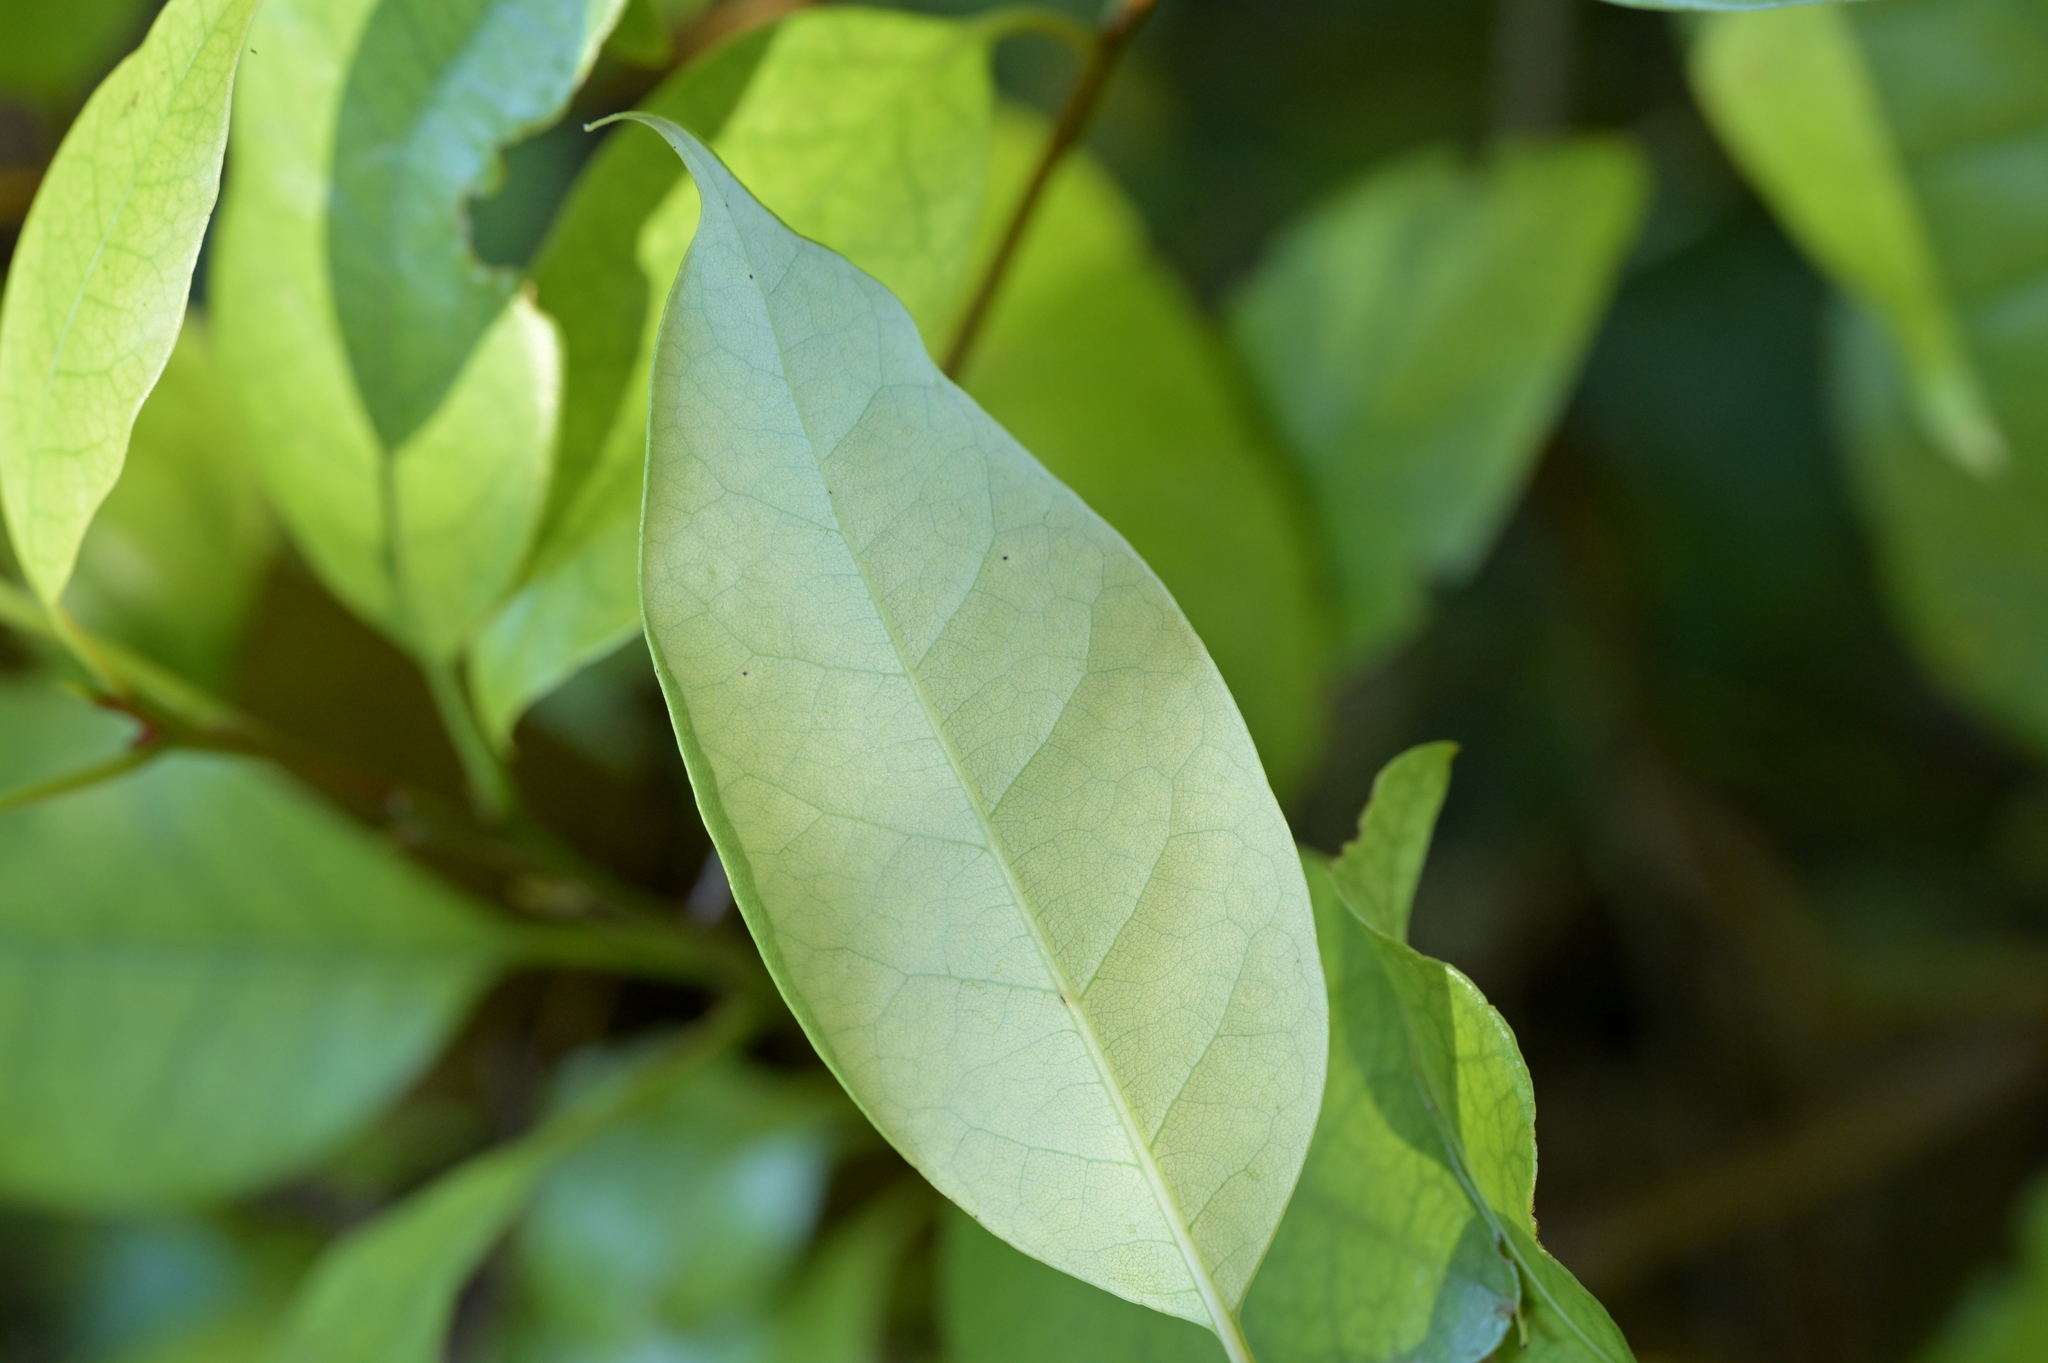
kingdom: Plantae
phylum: Tracheophyta
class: Magnoliopsida
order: Laurales
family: Lauraceae
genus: Litsea
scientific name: Litsea calicaris
